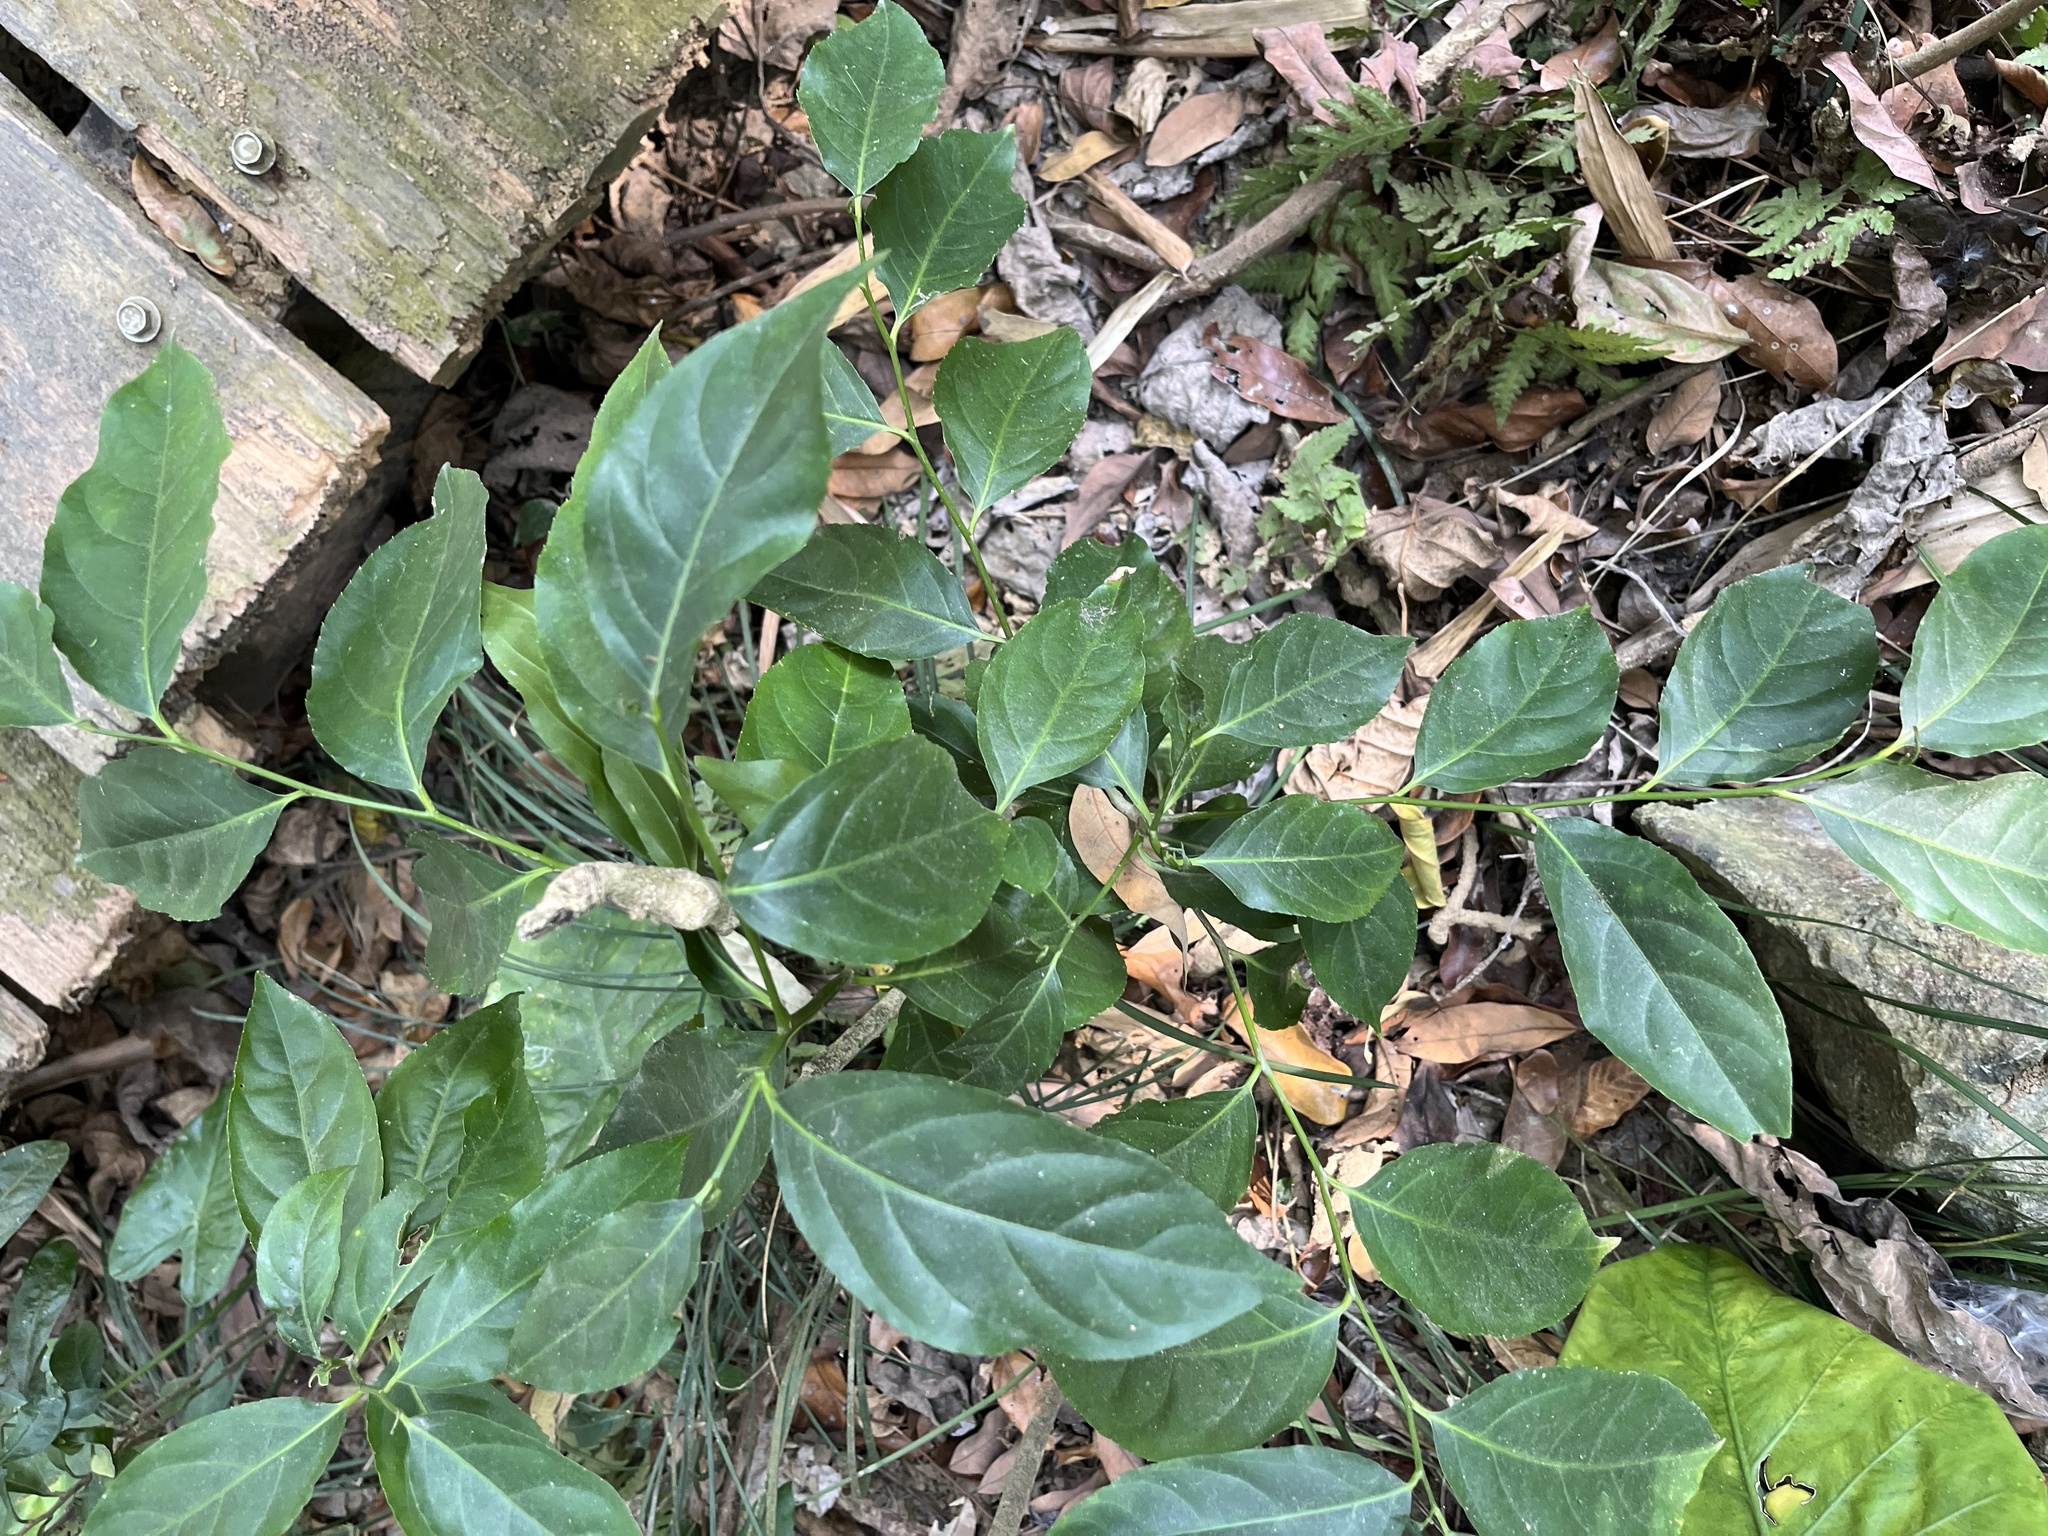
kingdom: Plantae
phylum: Tracheophyta
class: Magnoliopsida
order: Malpighiales
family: Salicaceae
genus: Casearia
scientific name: Casearia glomerata
